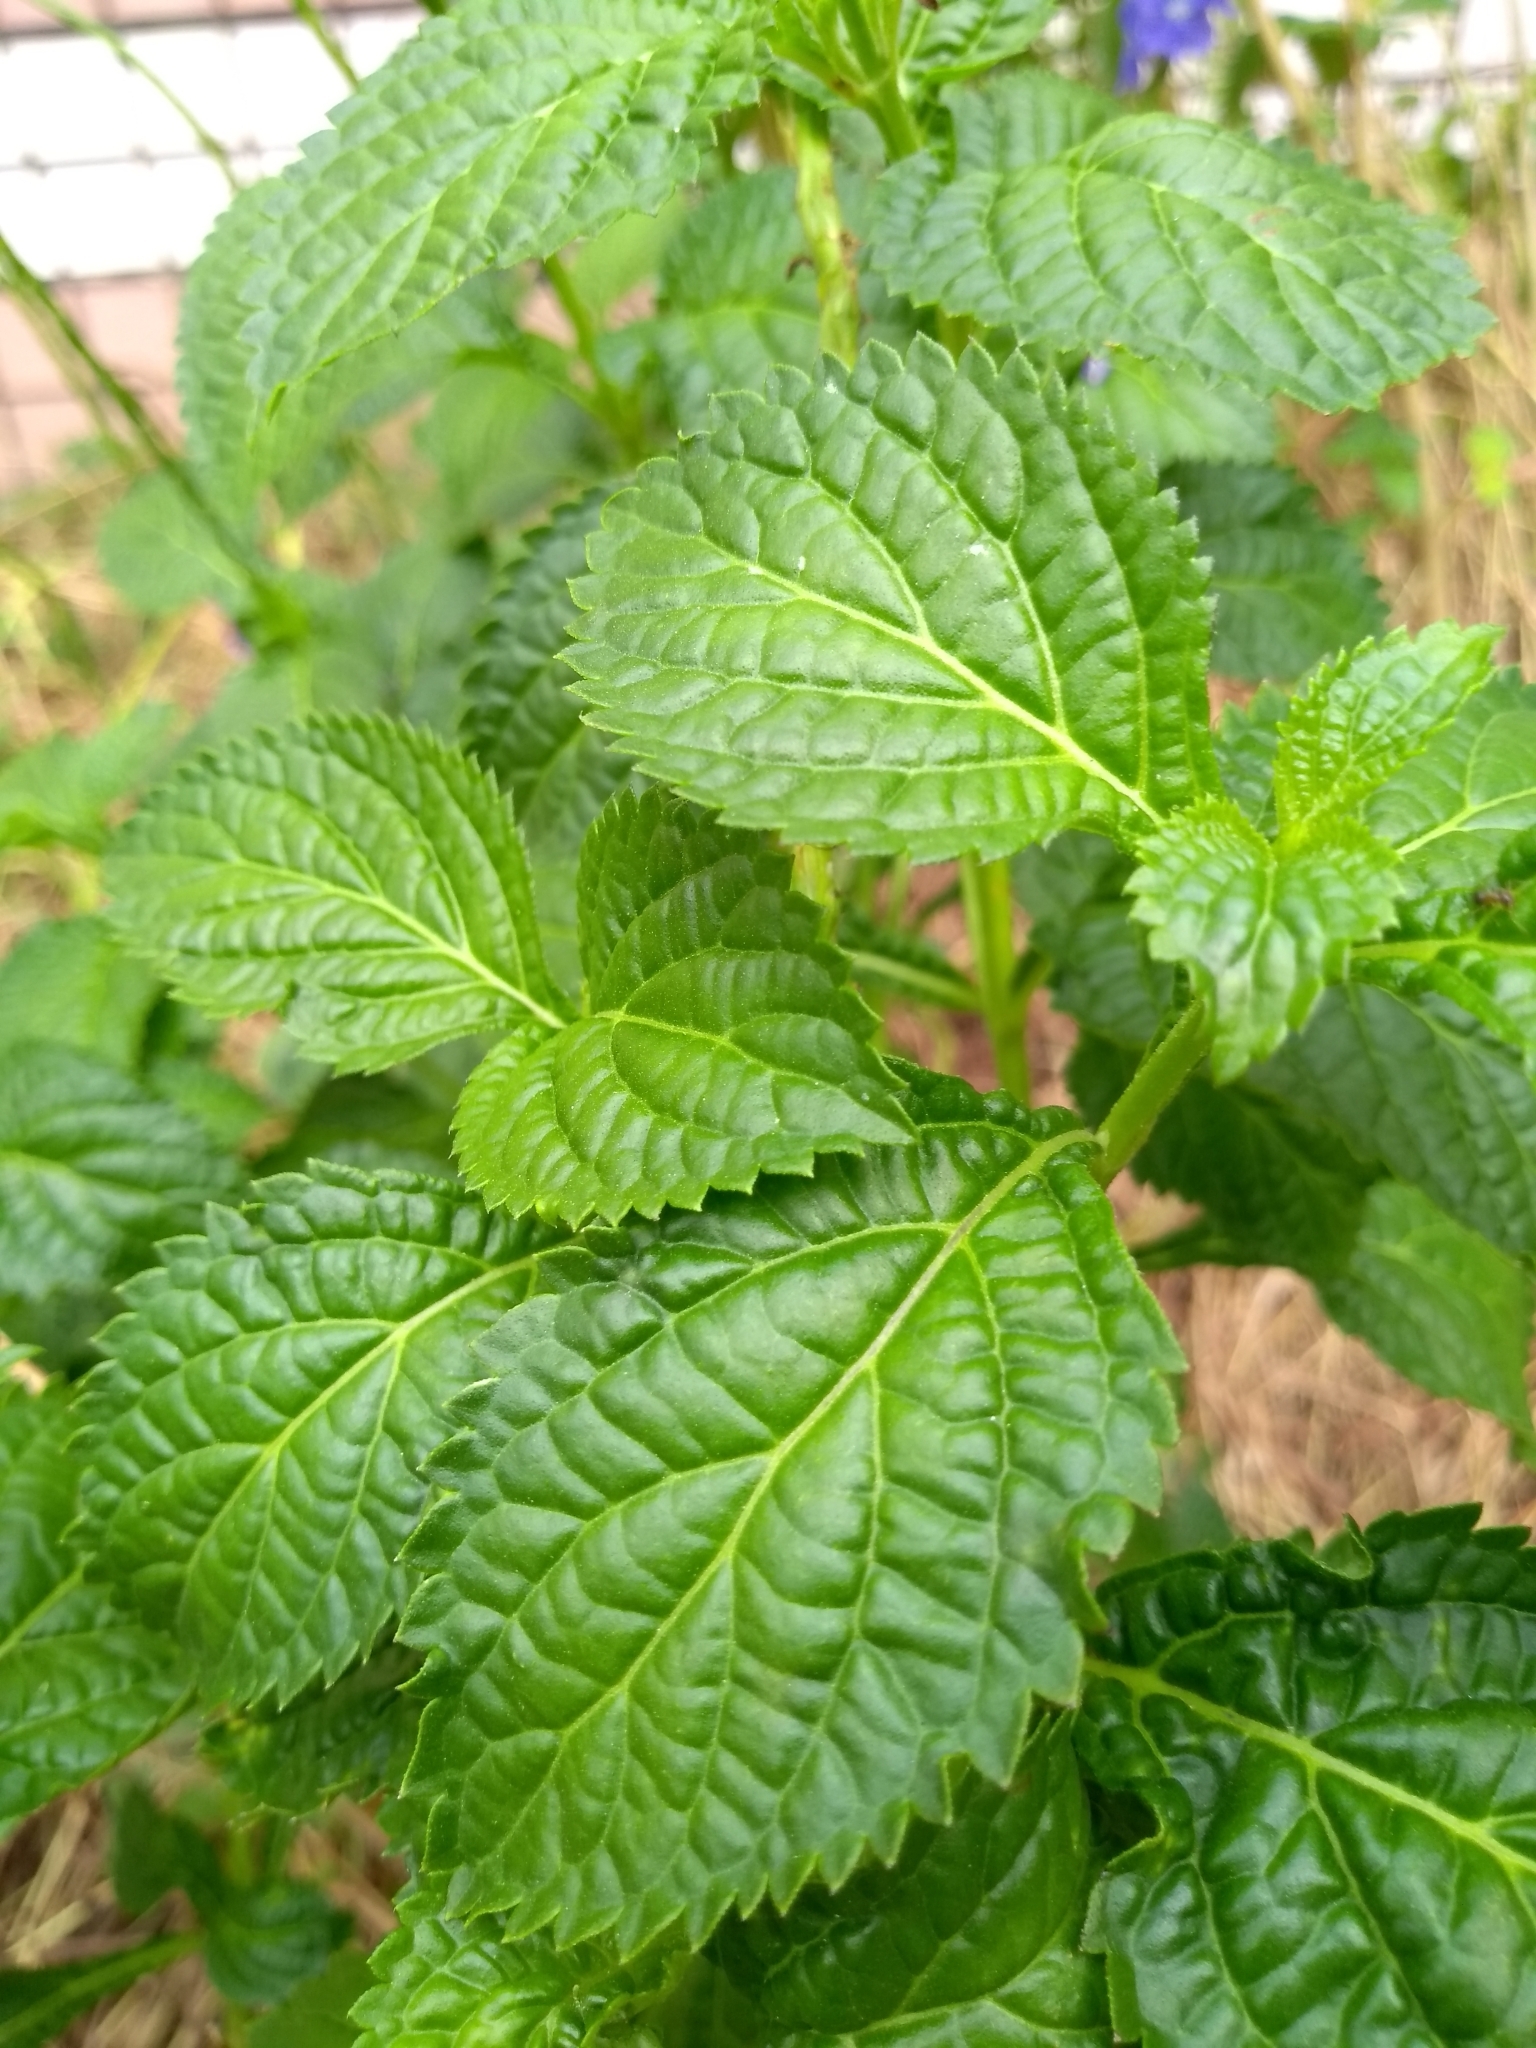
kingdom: Plantae
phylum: Tracheophyta
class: Magnoliopsida
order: Lamiales
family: Verbenaceae
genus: Stachytarpheta
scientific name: Stachytarpheta urticifolia
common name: Nettleleaf velvetberry
